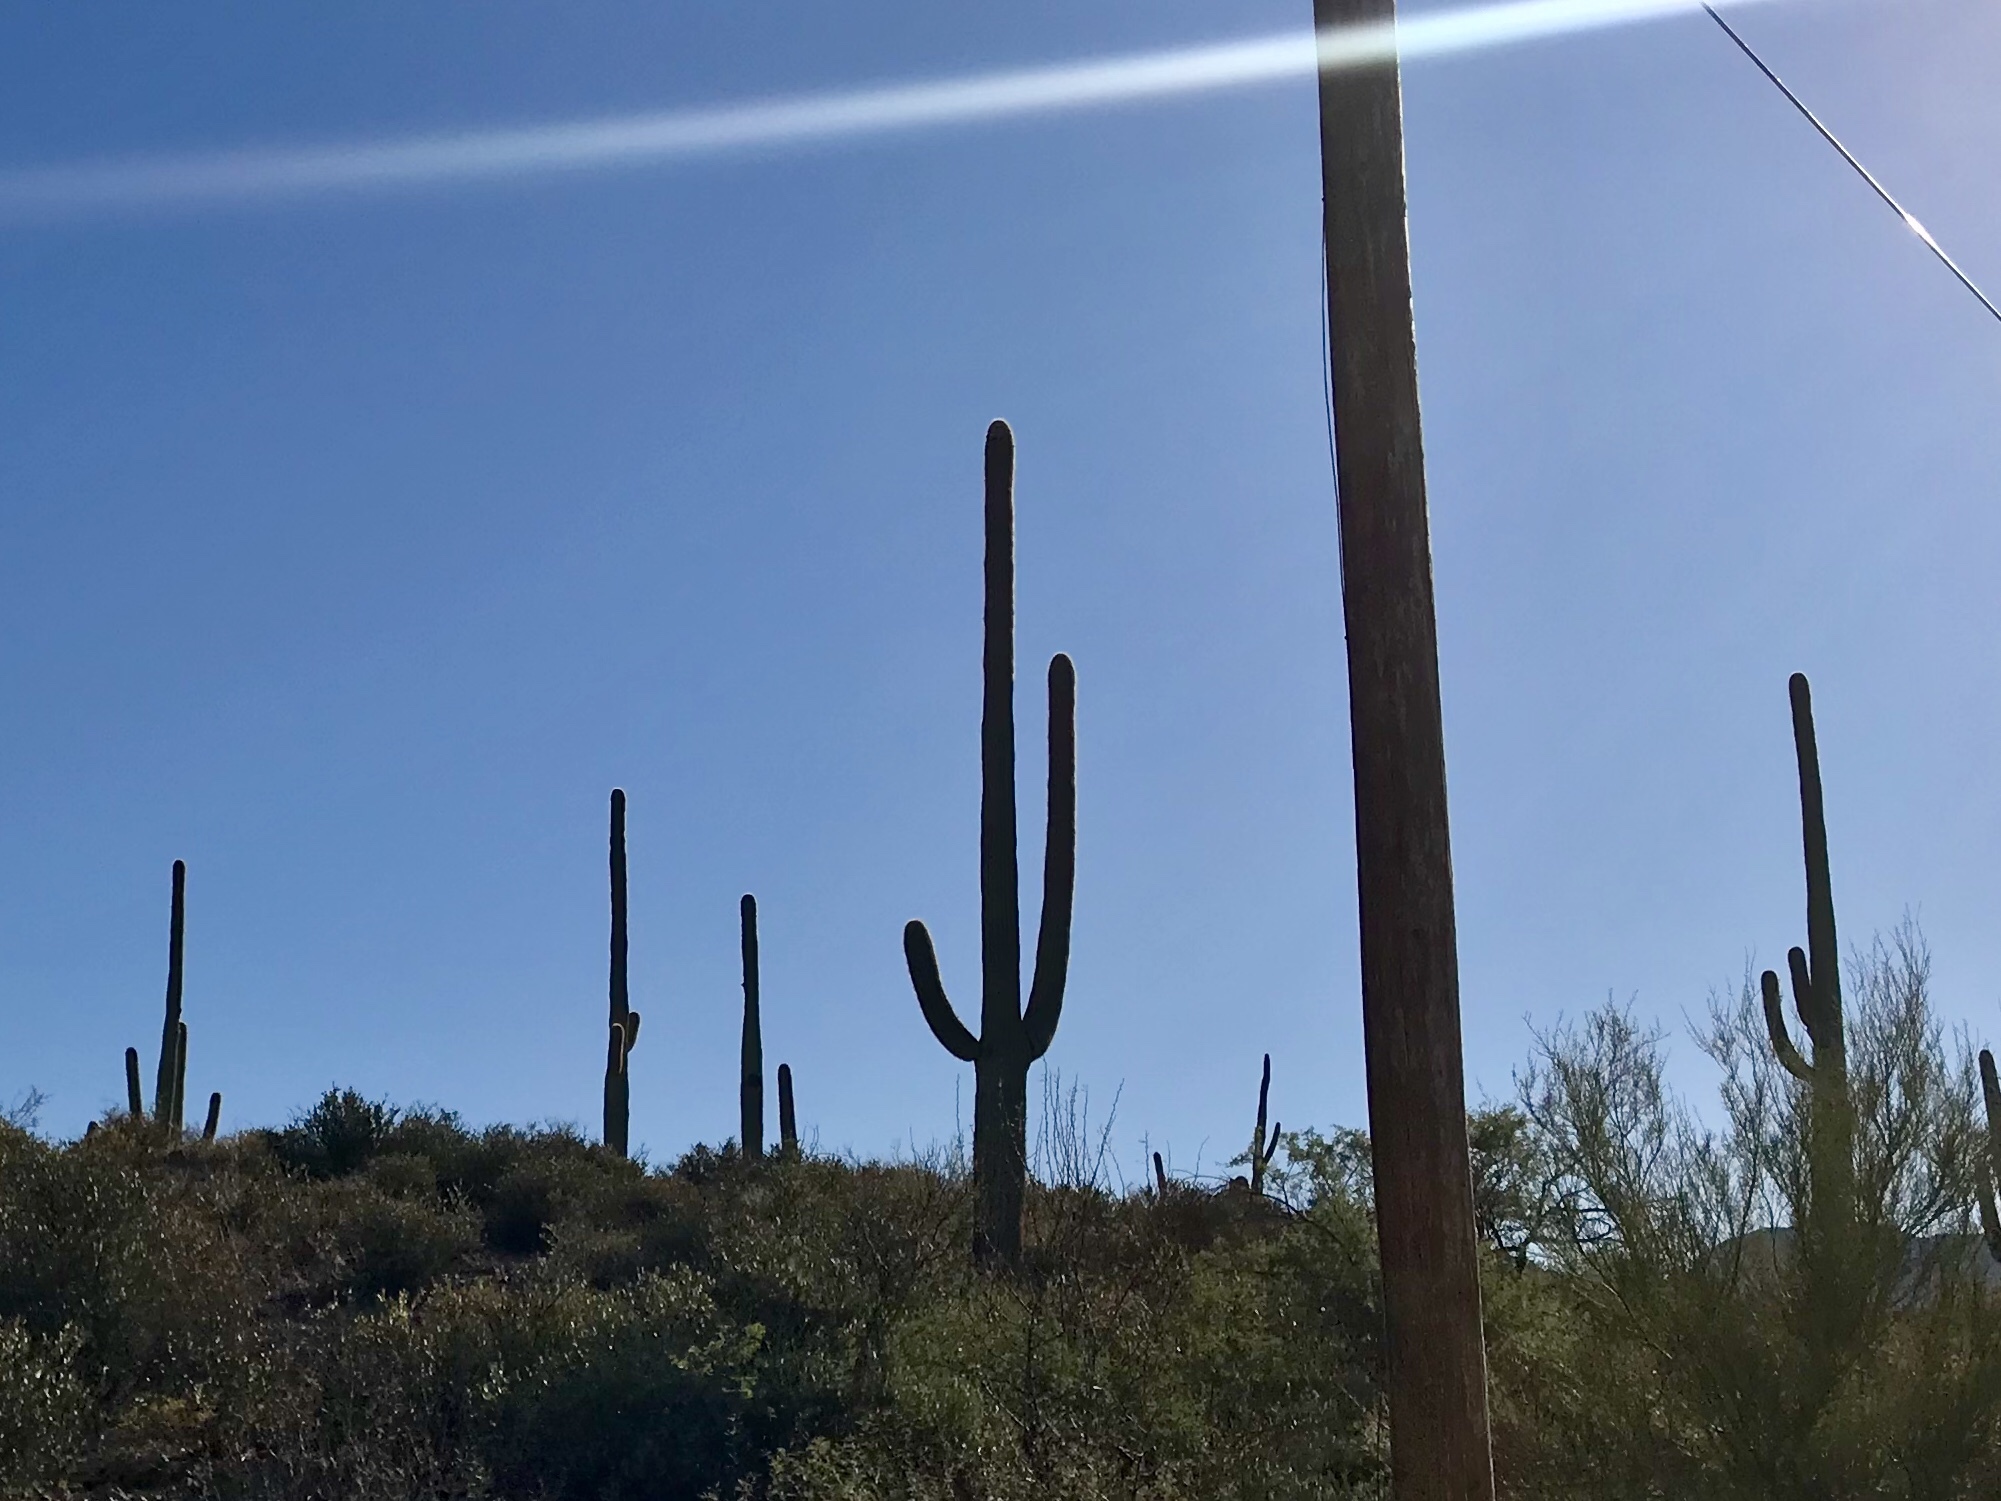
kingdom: Plantae
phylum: Tracheophyta
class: Magnoliopsida
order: Caryophyllales
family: Cactaceae
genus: Carnegiea
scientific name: Carnegiea gigantea
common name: Saguaro
